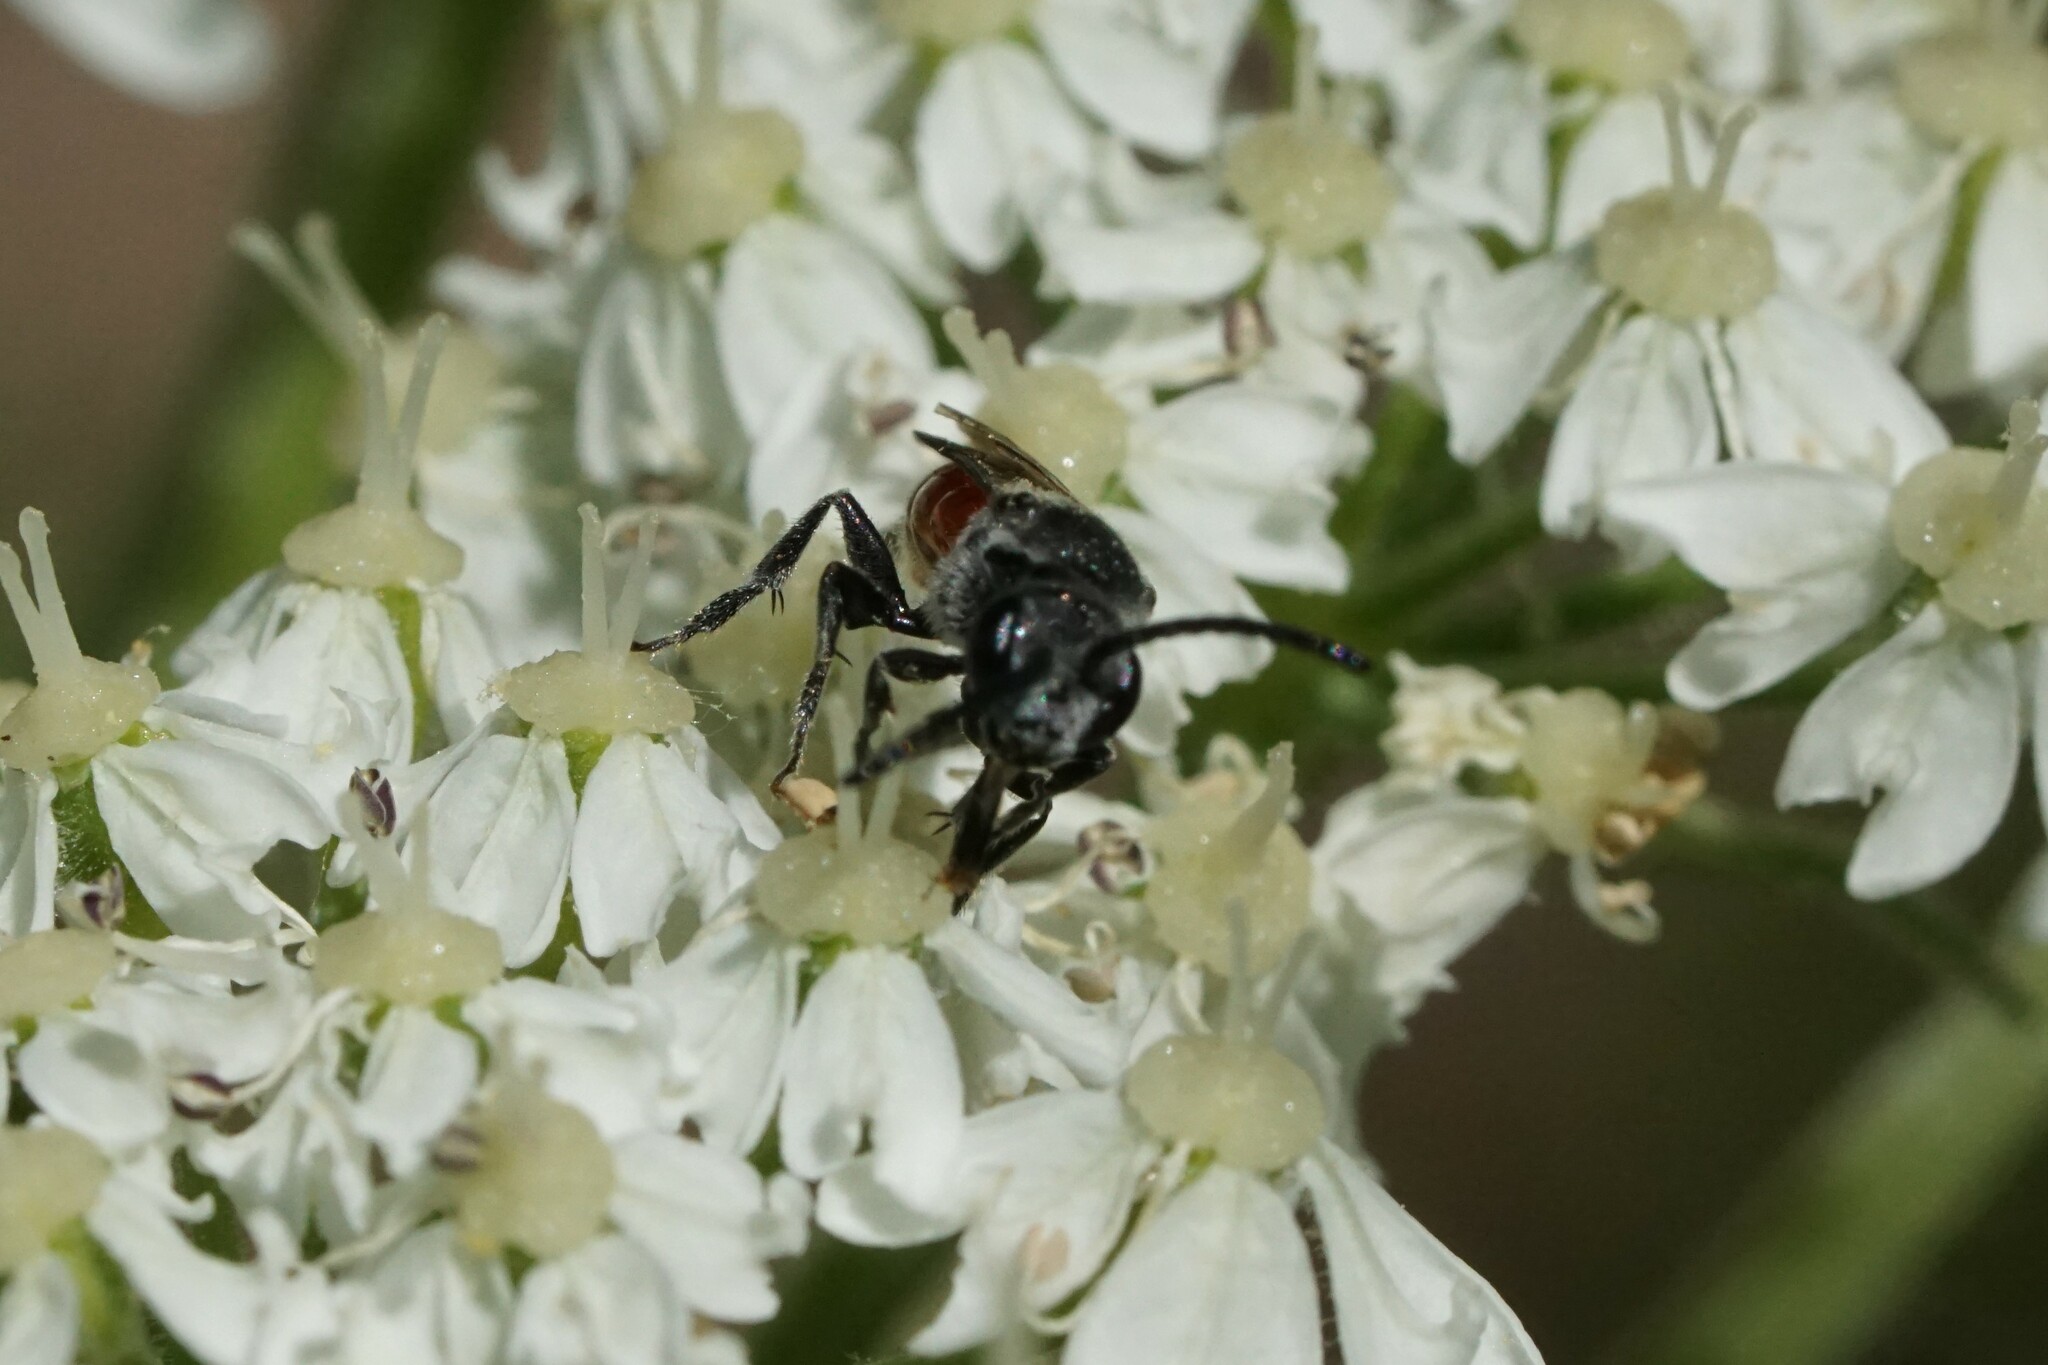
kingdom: Animalia
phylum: Arthropoda
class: Insecta
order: Hymenoptera
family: Halictidae
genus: Sphecodes
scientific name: Sphecodes aroniae
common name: Chokeberry cuckoo sweat bee
